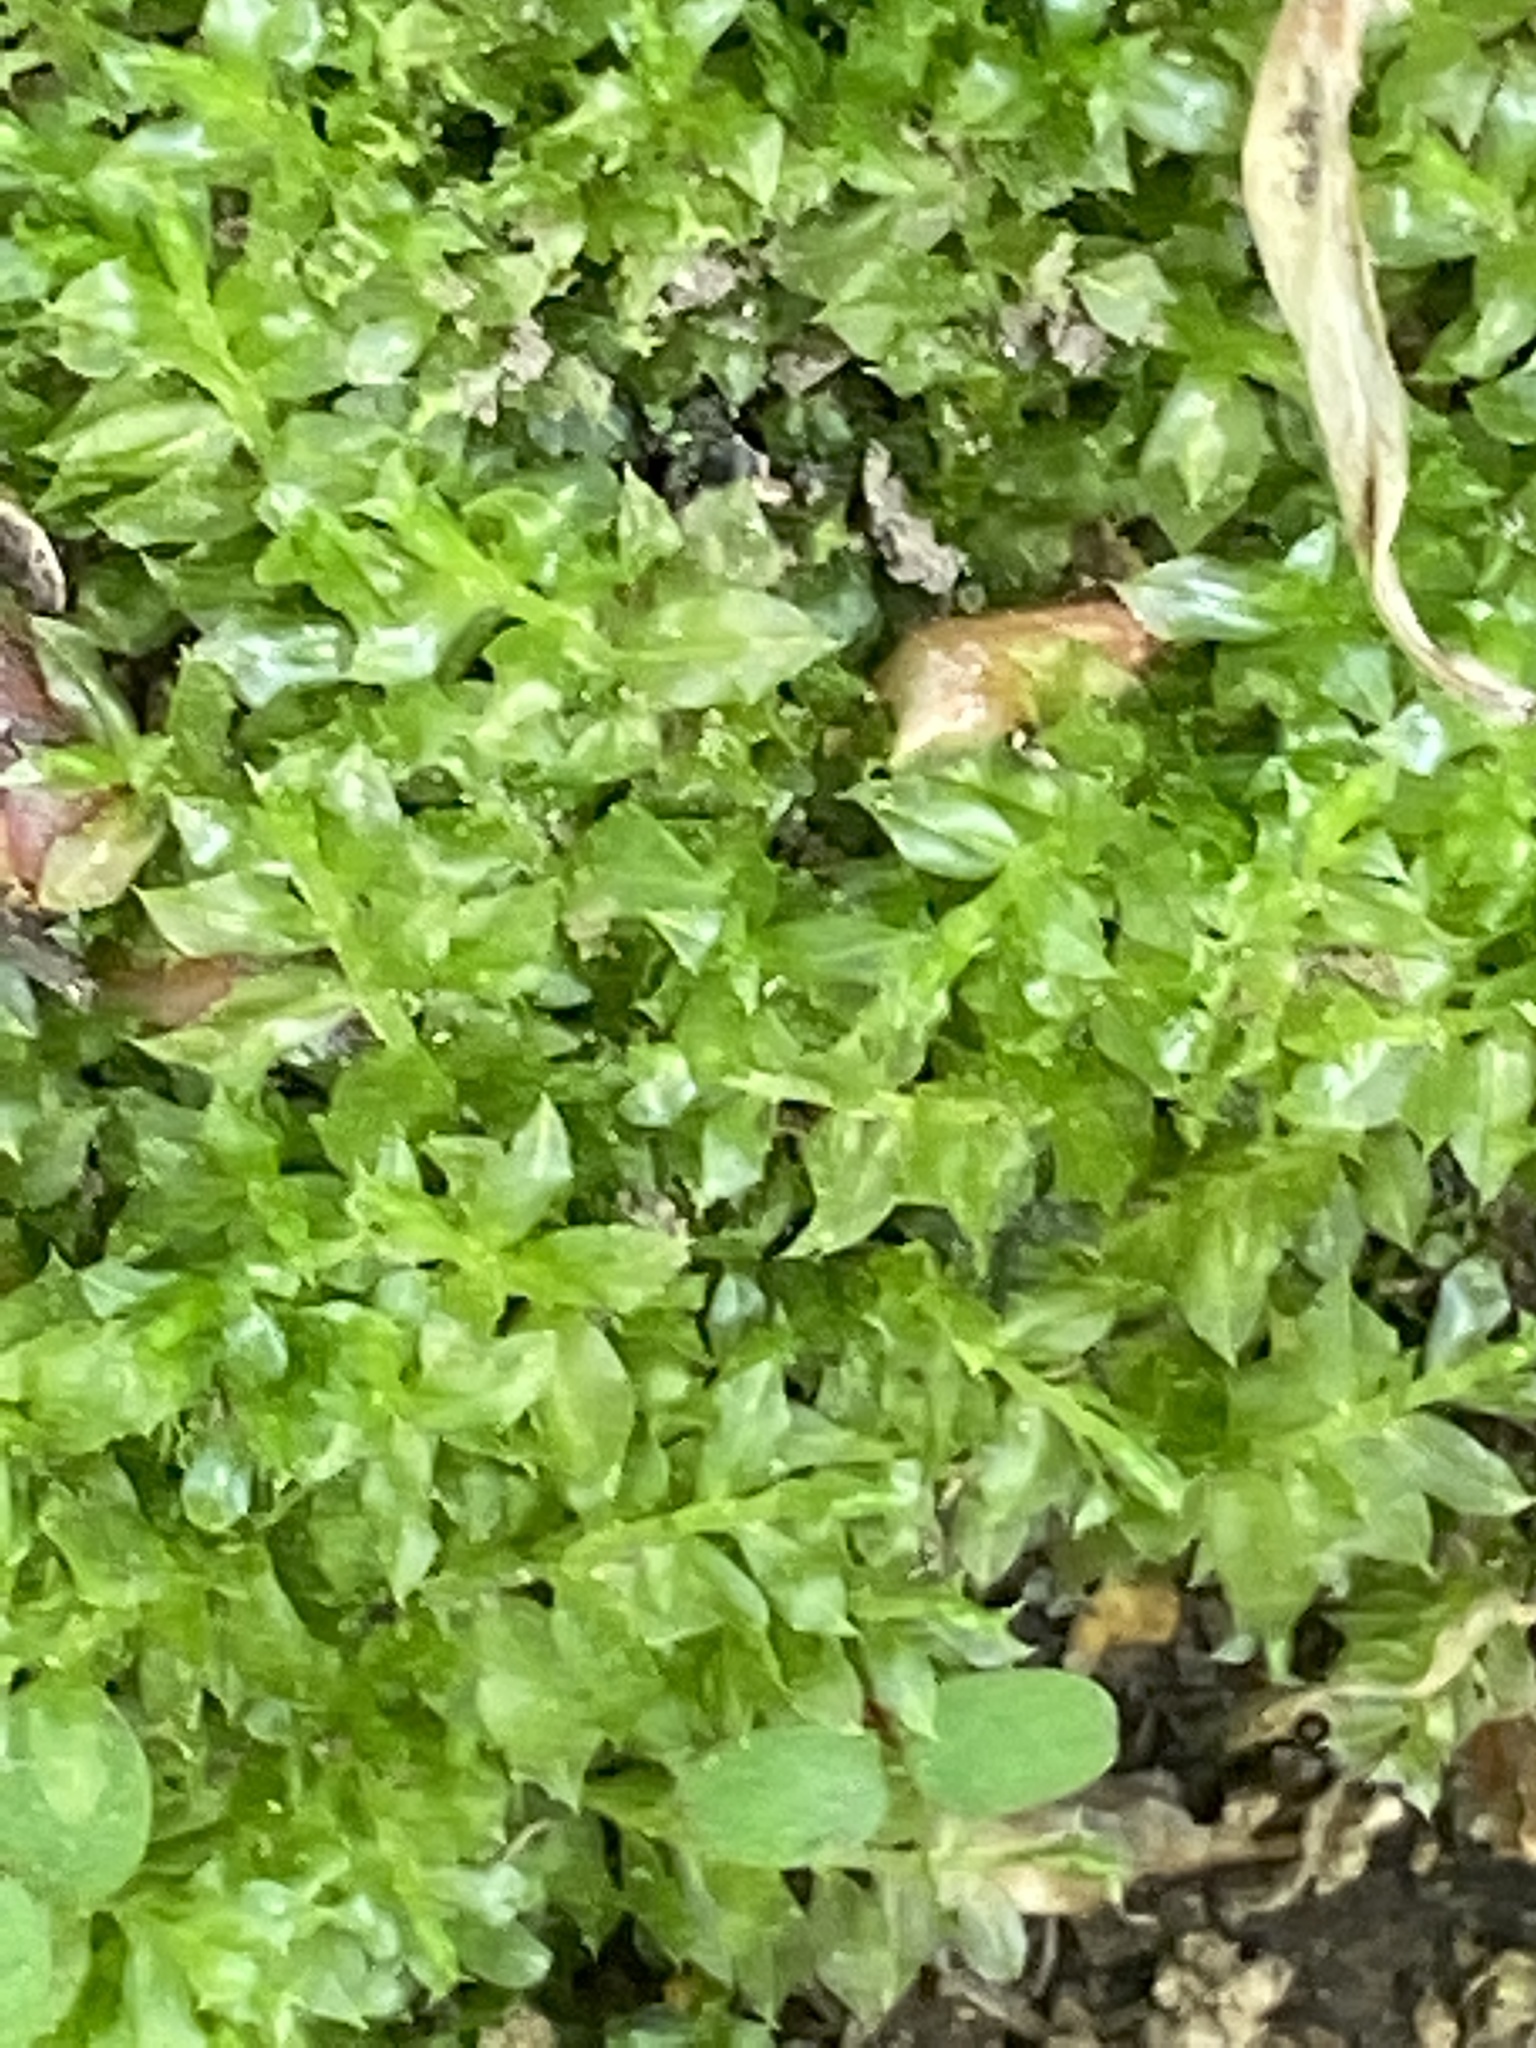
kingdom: Plantae
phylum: Bryophyta
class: Bryopsida
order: Bryales
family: Mniaceae
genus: Plagiomnium
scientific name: Plagiomnium cuspidatum
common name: Woodsy leafy moss
